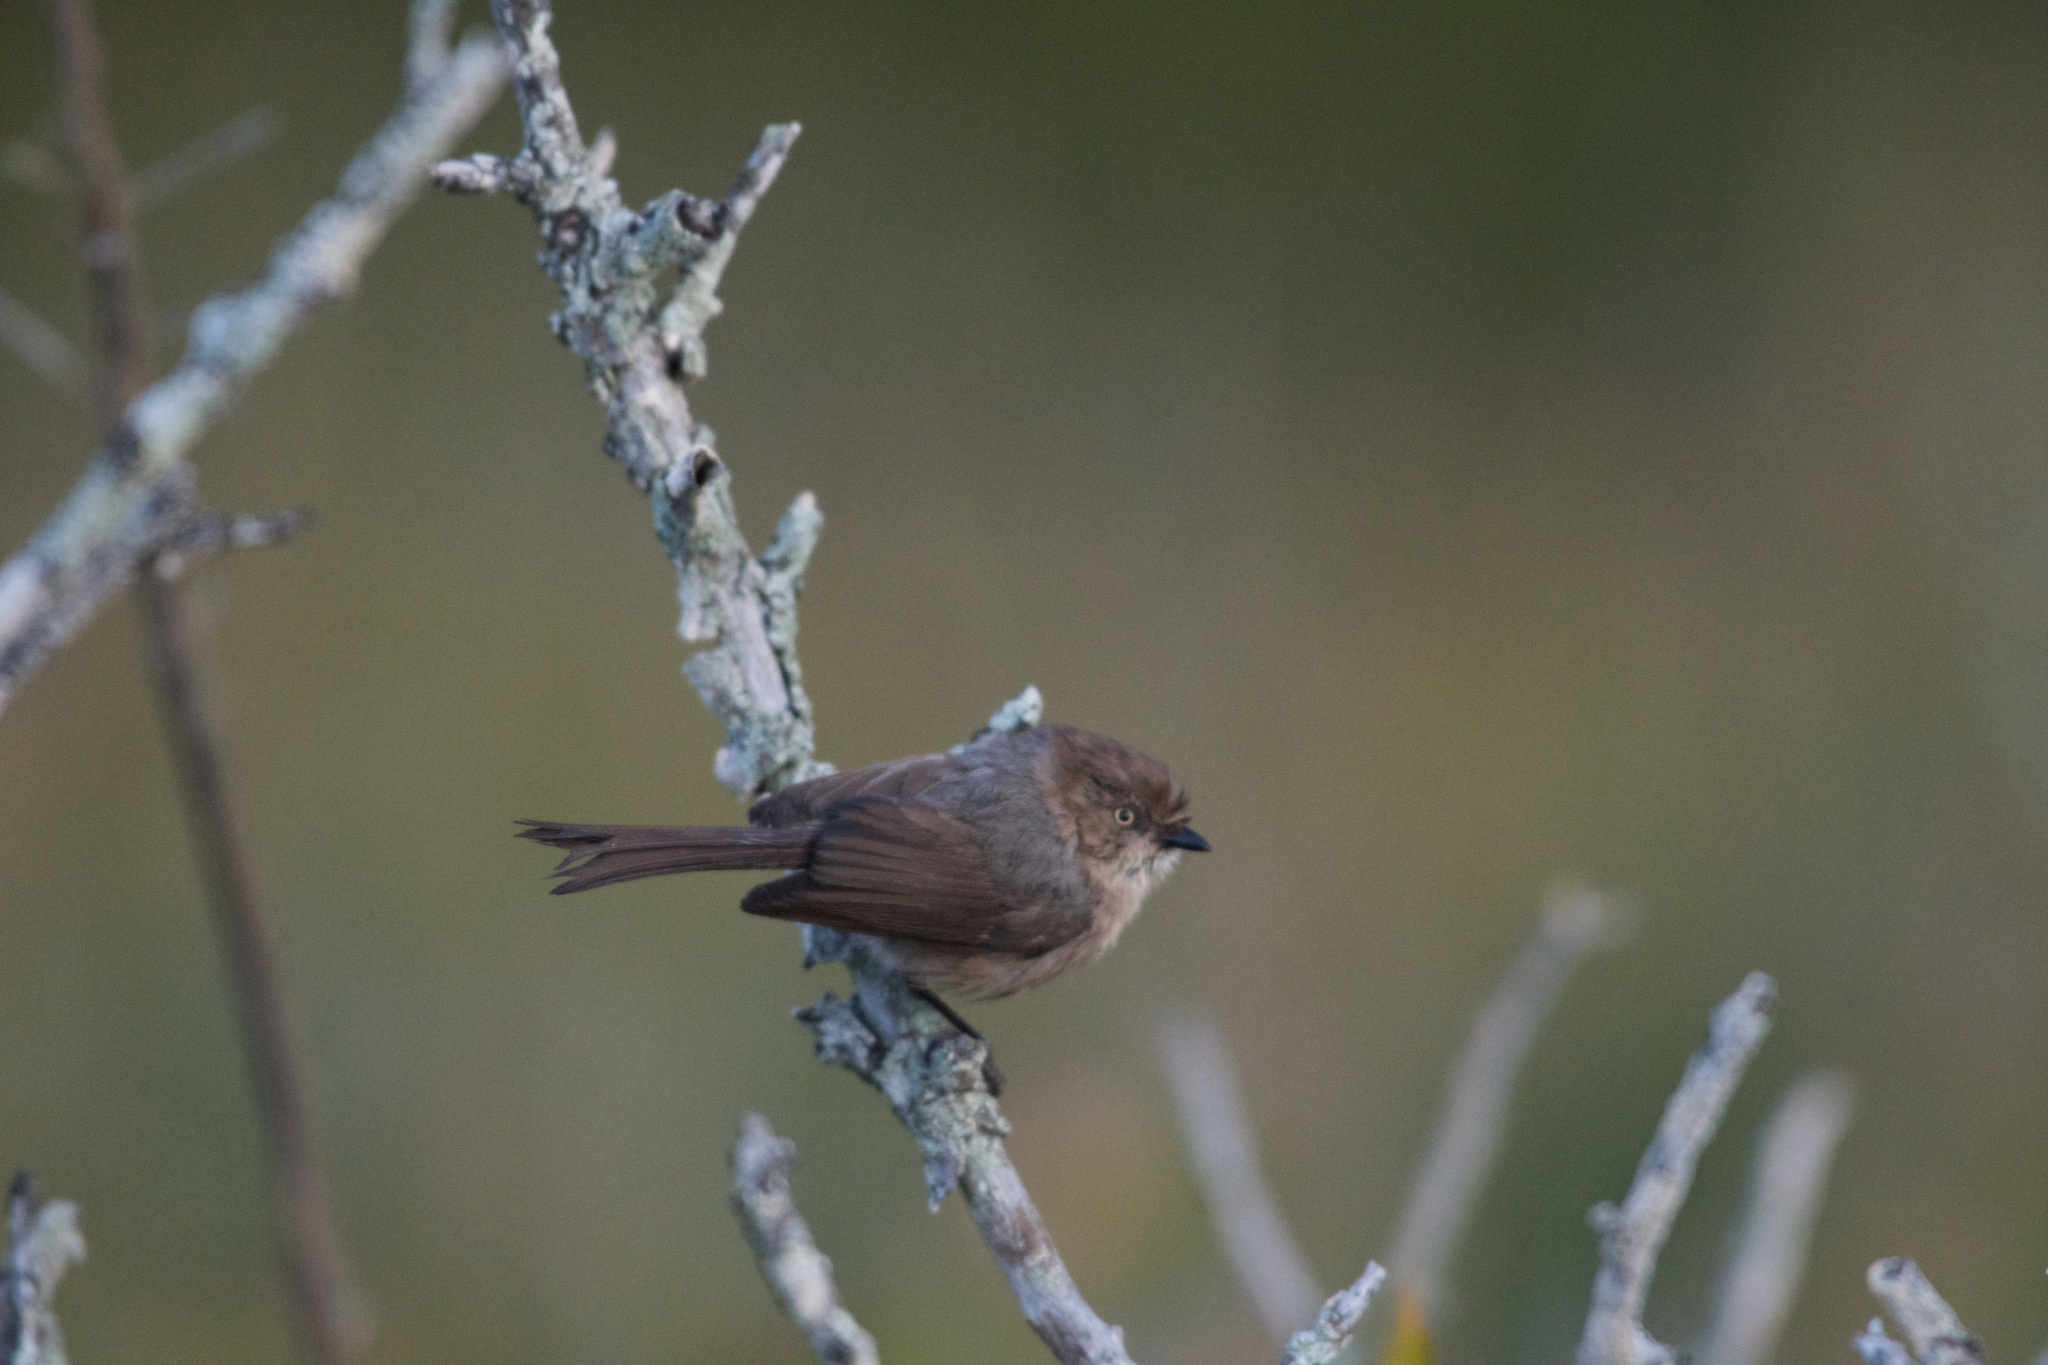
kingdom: Animalia
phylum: Chordata
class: Aves
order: Passeriformes
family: Aegithalidae
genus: Psaltriparus
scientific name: Psaltriparus minimus
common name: American bushtit
